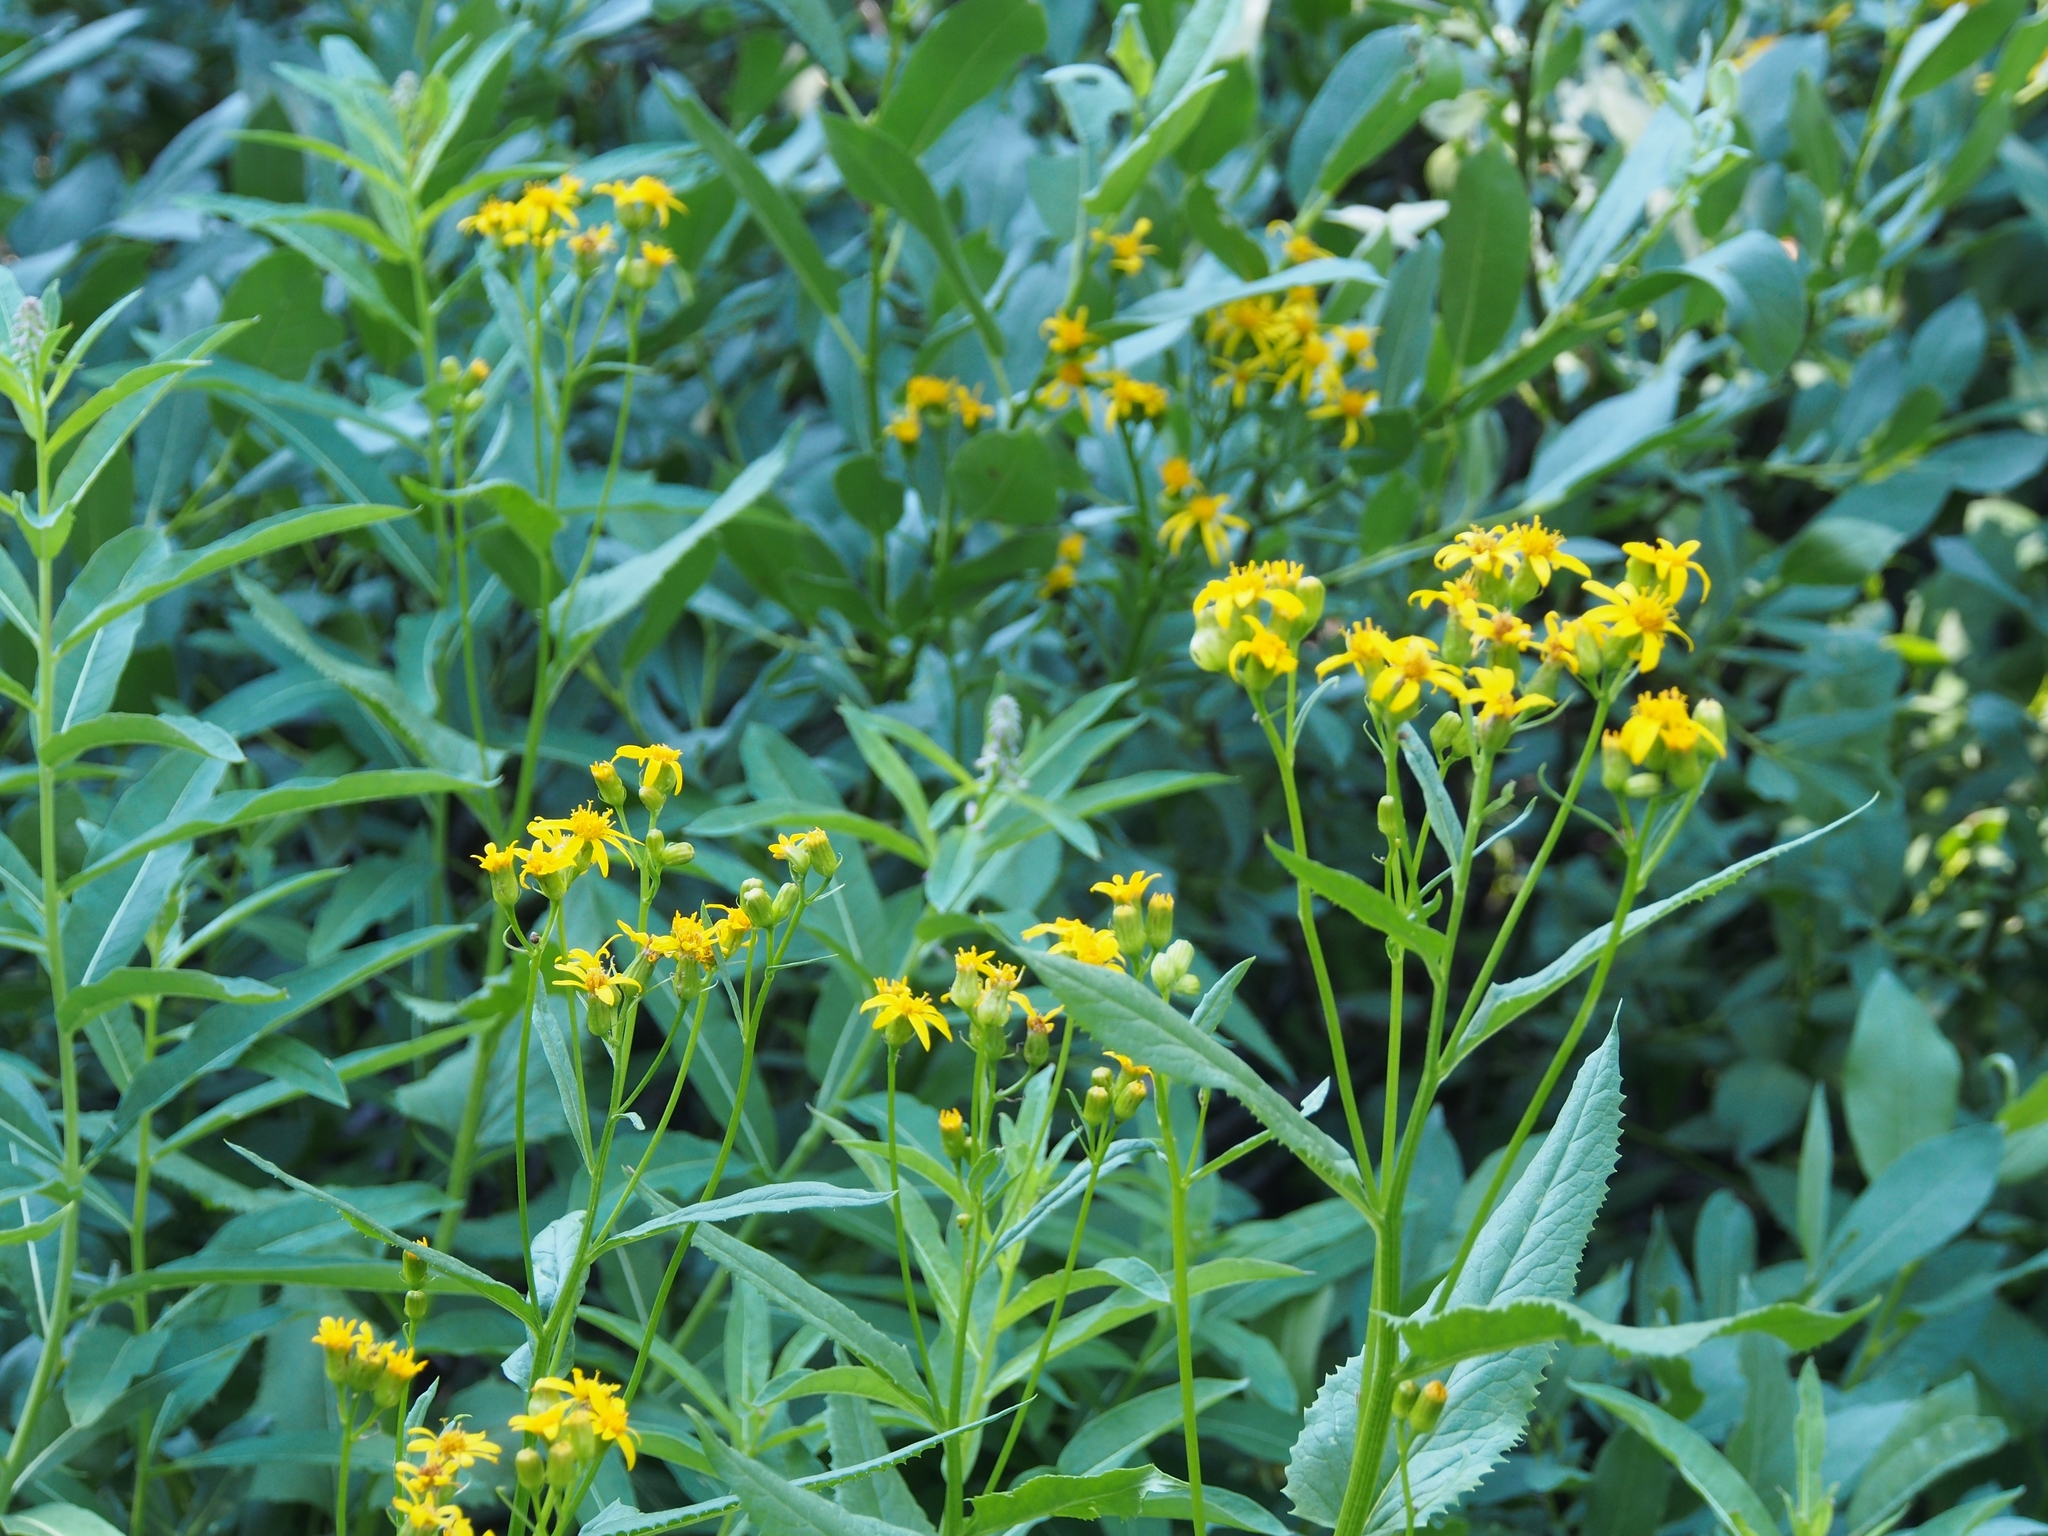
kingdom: Plantae
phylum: Tracheophyta
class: Magnoliopsida
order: Asterales
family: Asteraceae
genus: Senecio
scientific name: Senecio triangularis
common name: Arrowleaf butterweed
